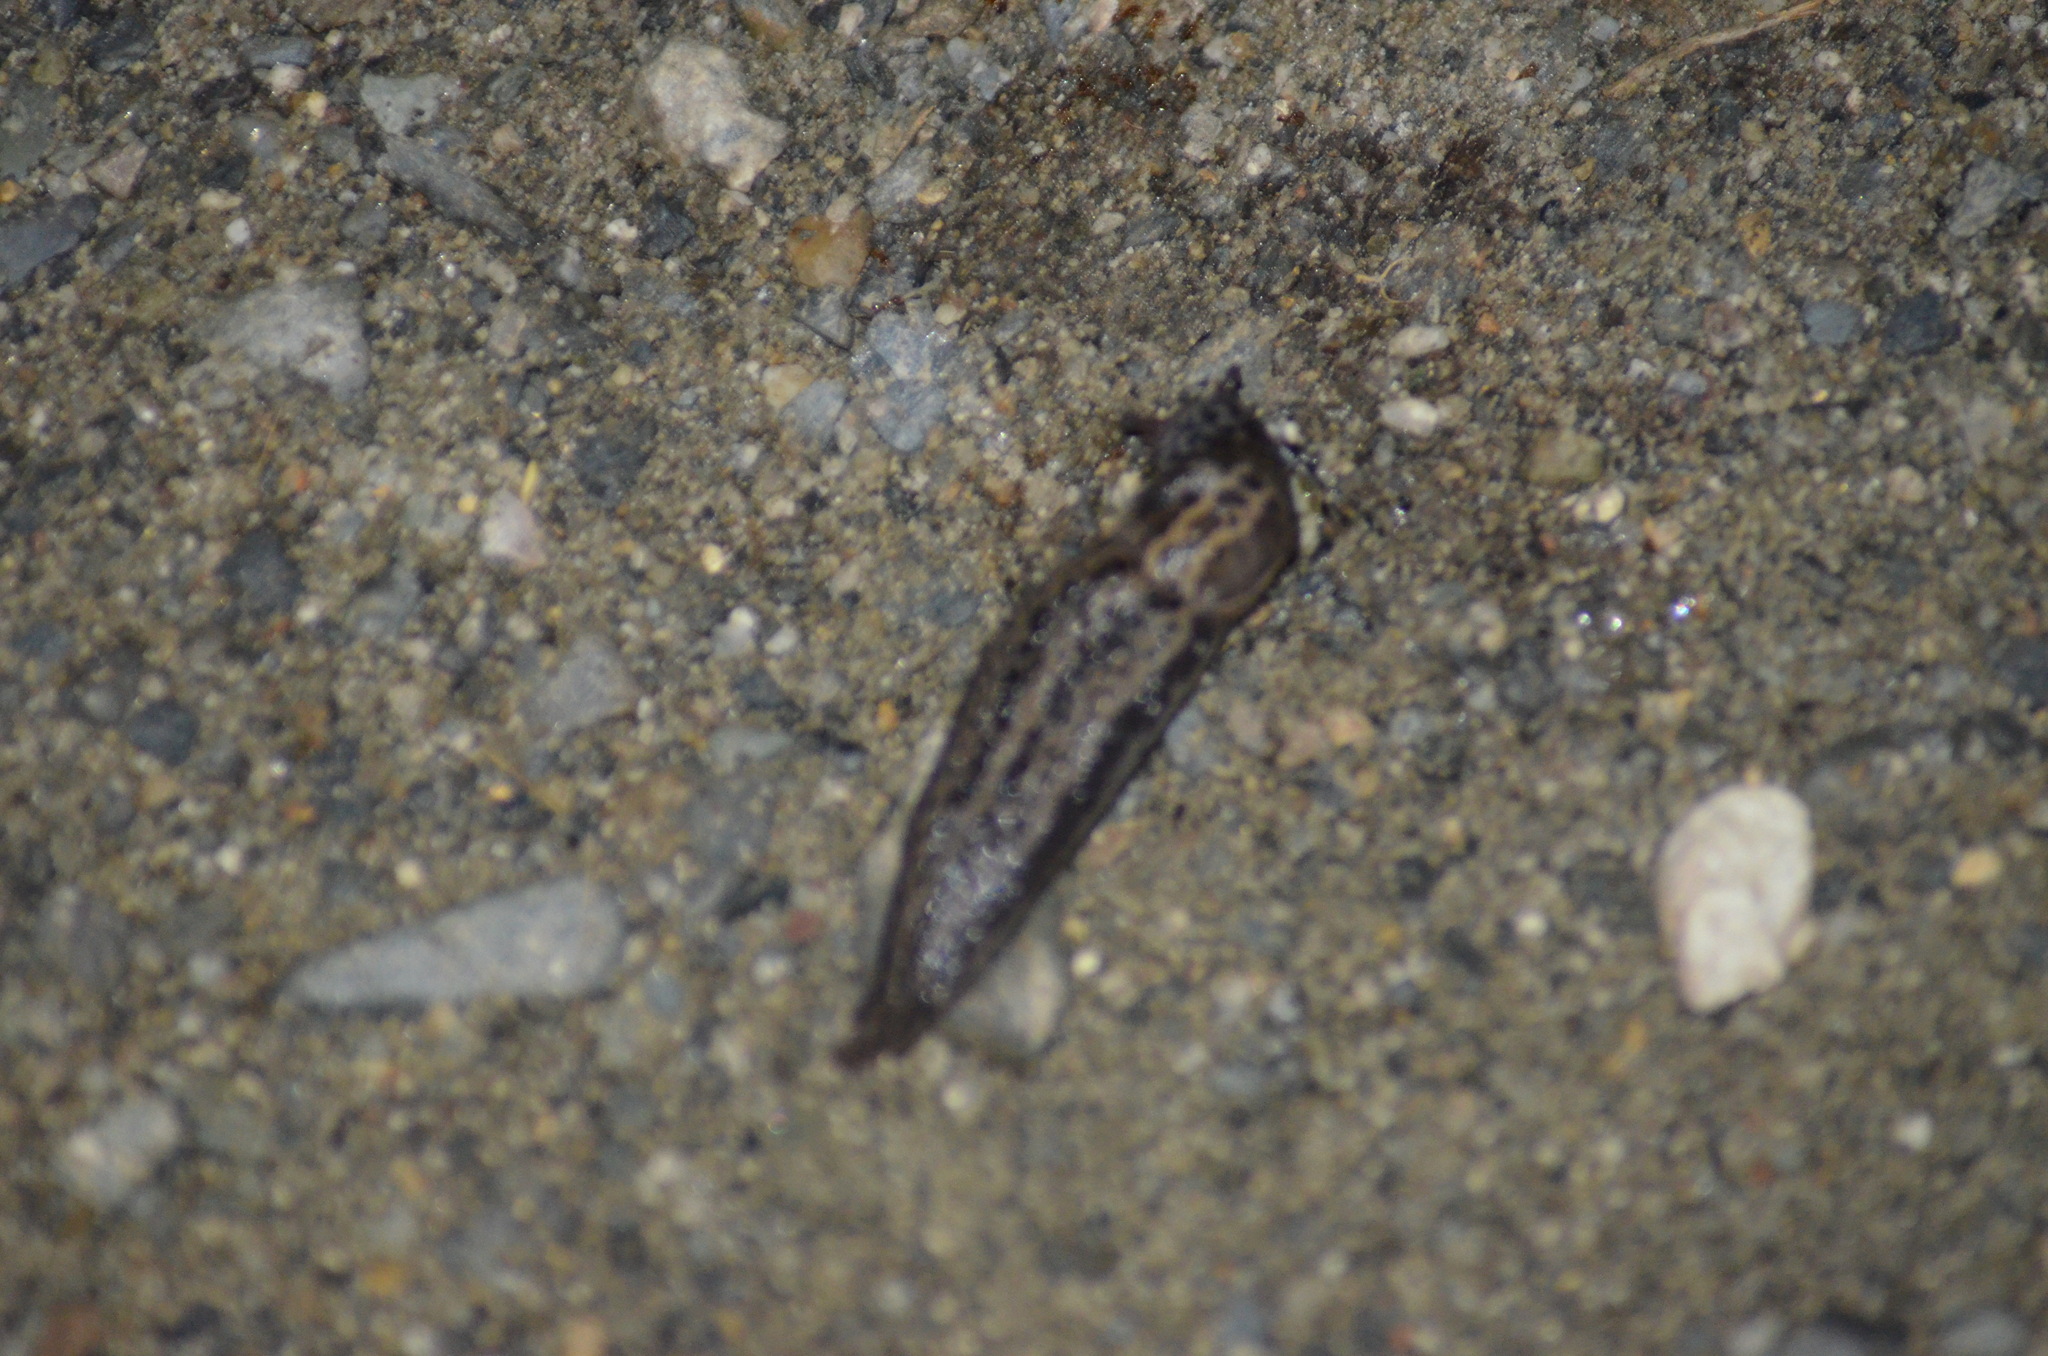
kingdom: Animalia
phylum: Mollusca
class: Gastropoda
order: Stylommatophora
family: Limacidae
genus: Limax
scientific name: Limax maximus
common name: Great grey slug
